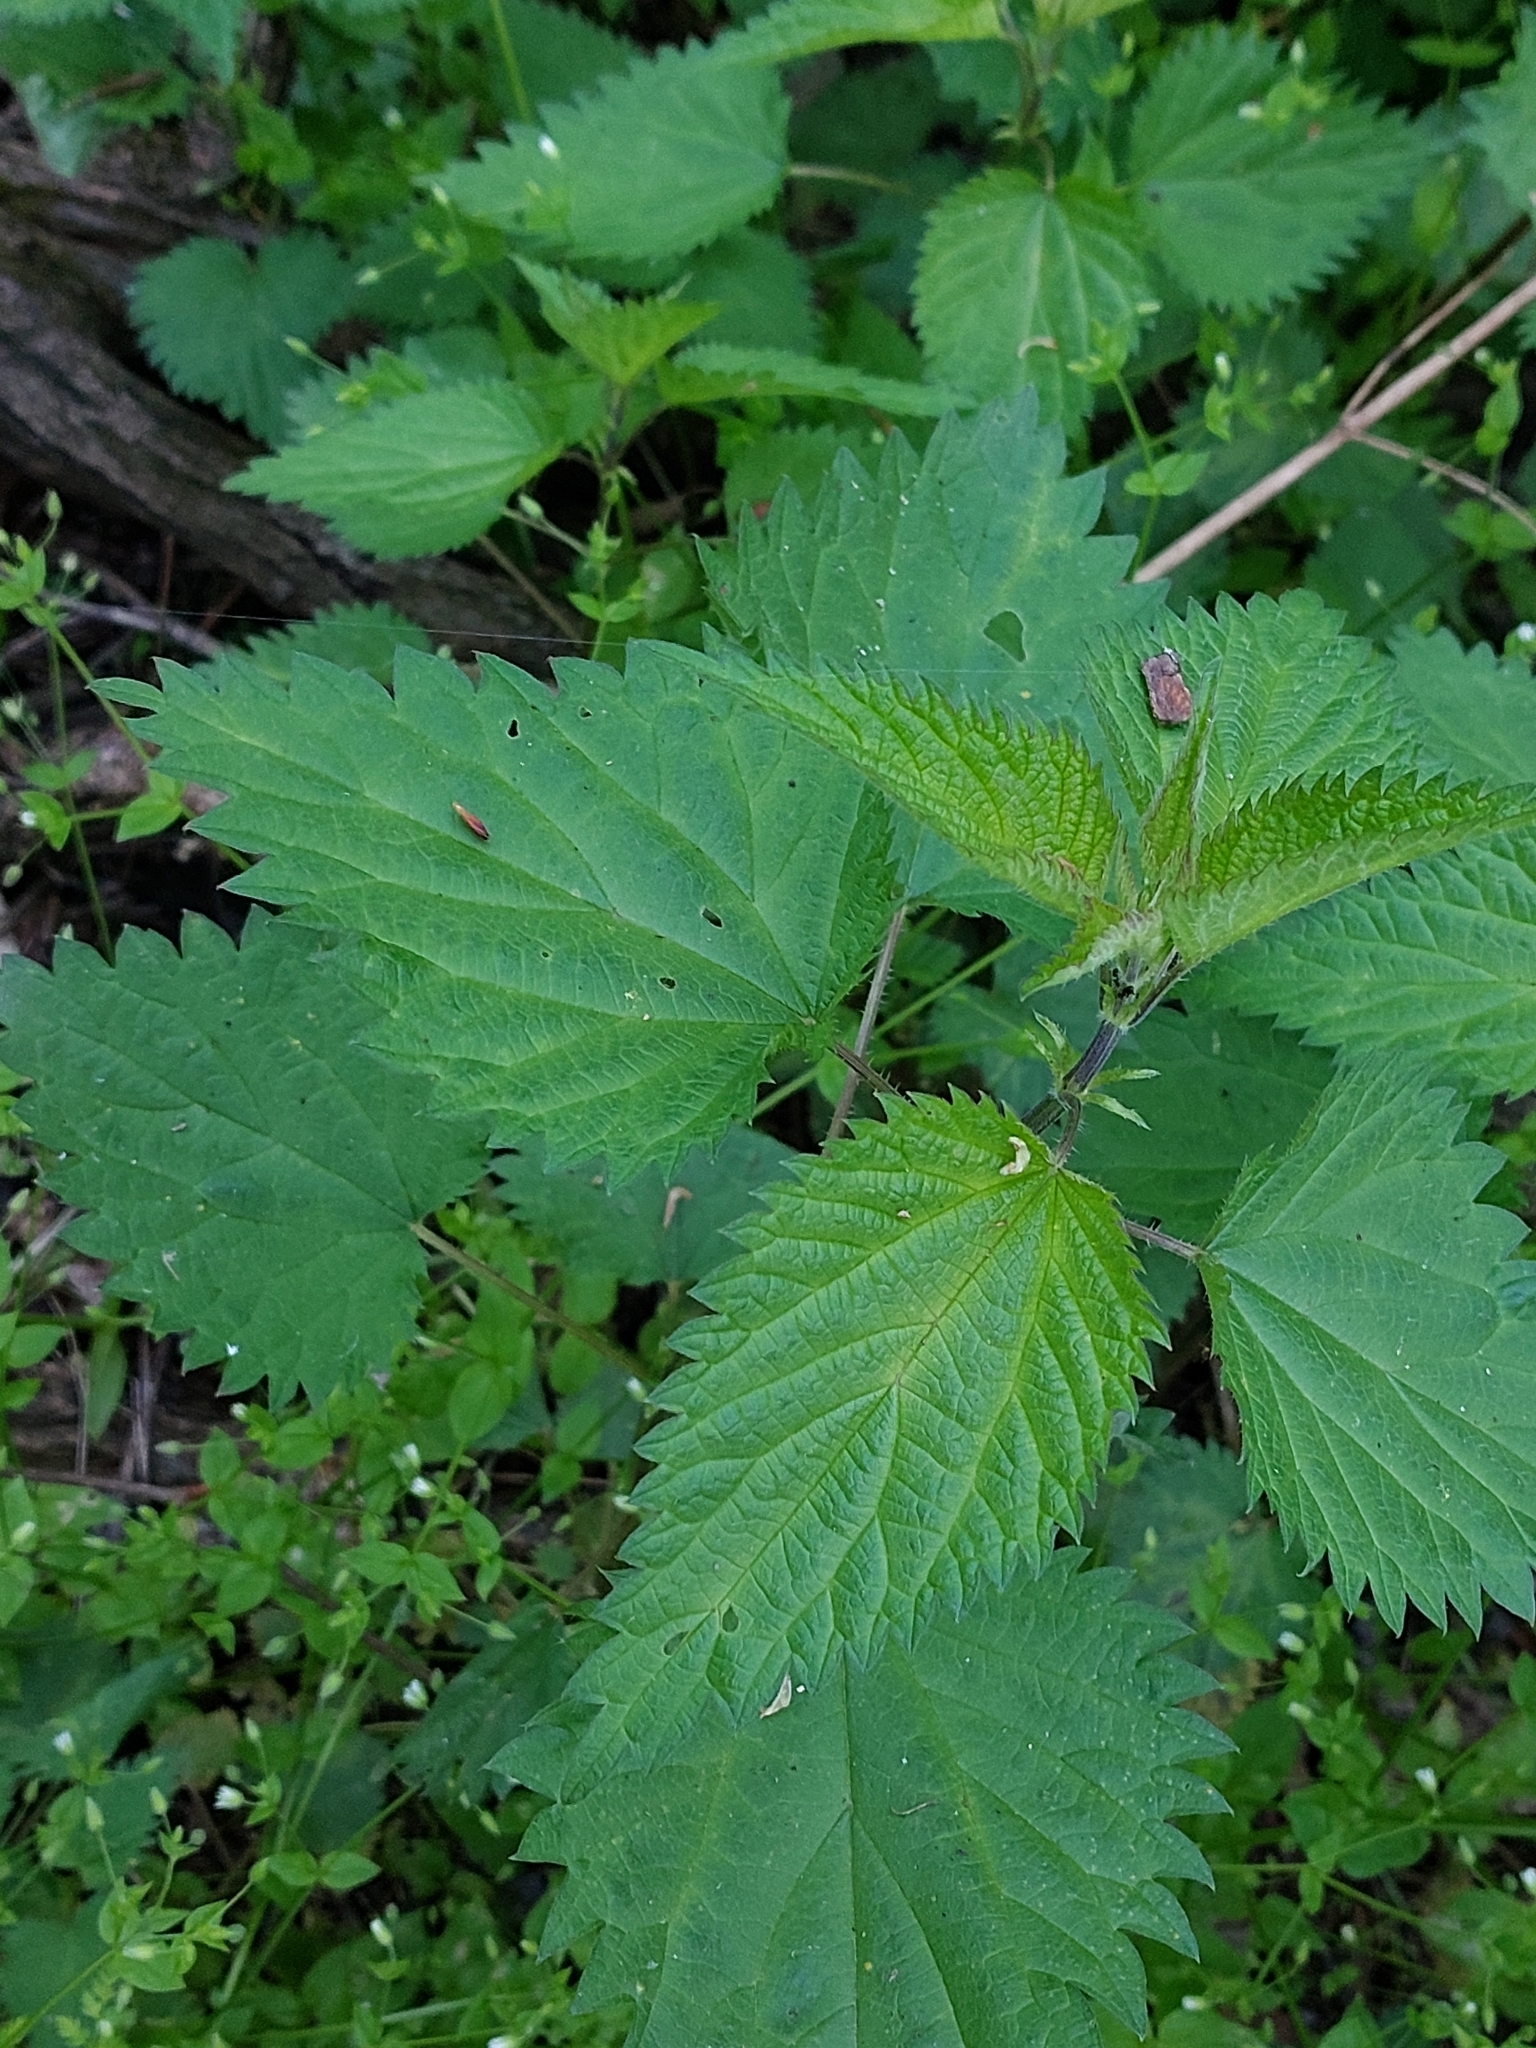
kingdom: Plantae
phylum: Tracheophyta
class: Magnoliopsida
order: Rosales
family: Urticaceae
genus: Urtica
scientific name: Urtica dioica
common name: Common nettle
